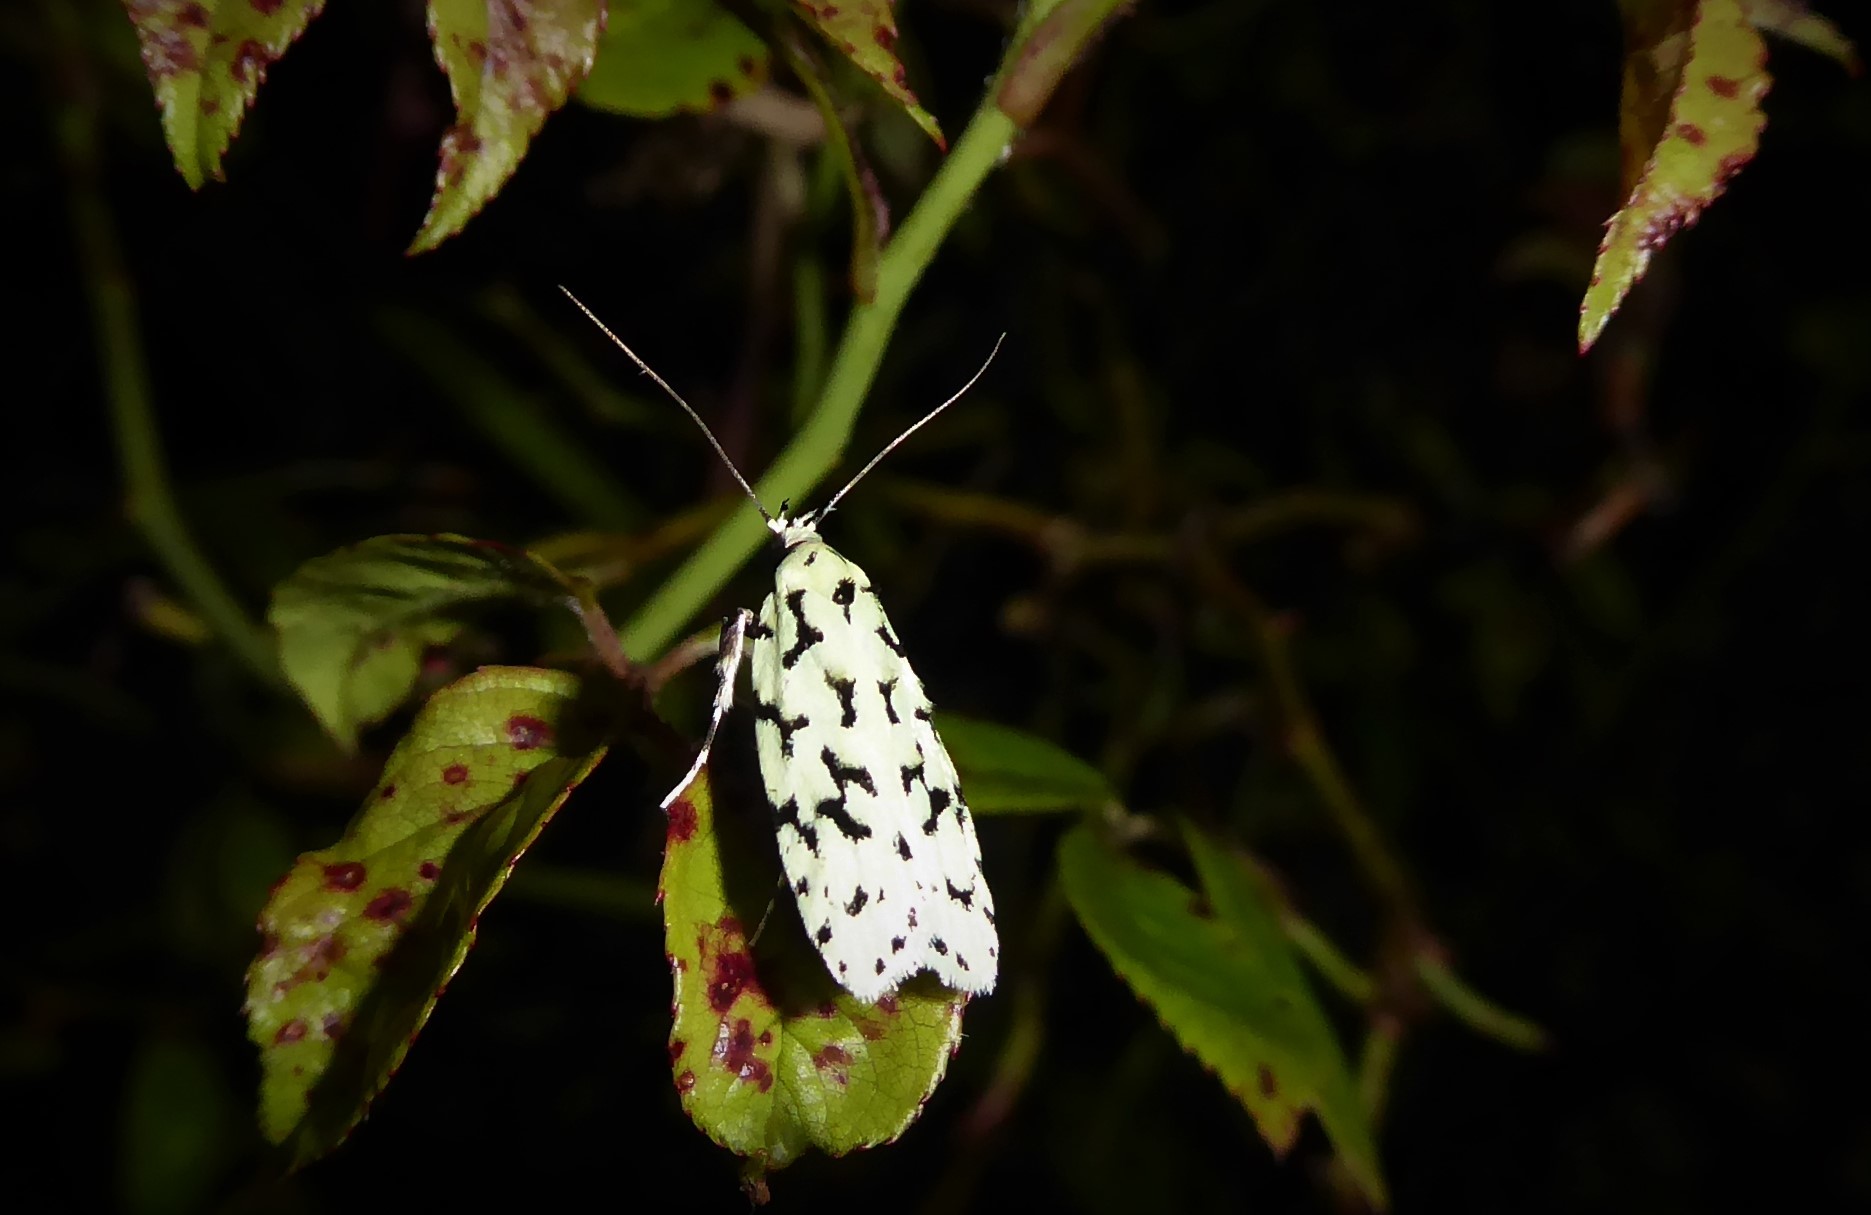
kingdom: Animalia
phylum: Arthropoda
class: Insecta
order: Lepidoptera
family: Oecophoridae
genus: Izatha
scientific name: Izatha huttoni
